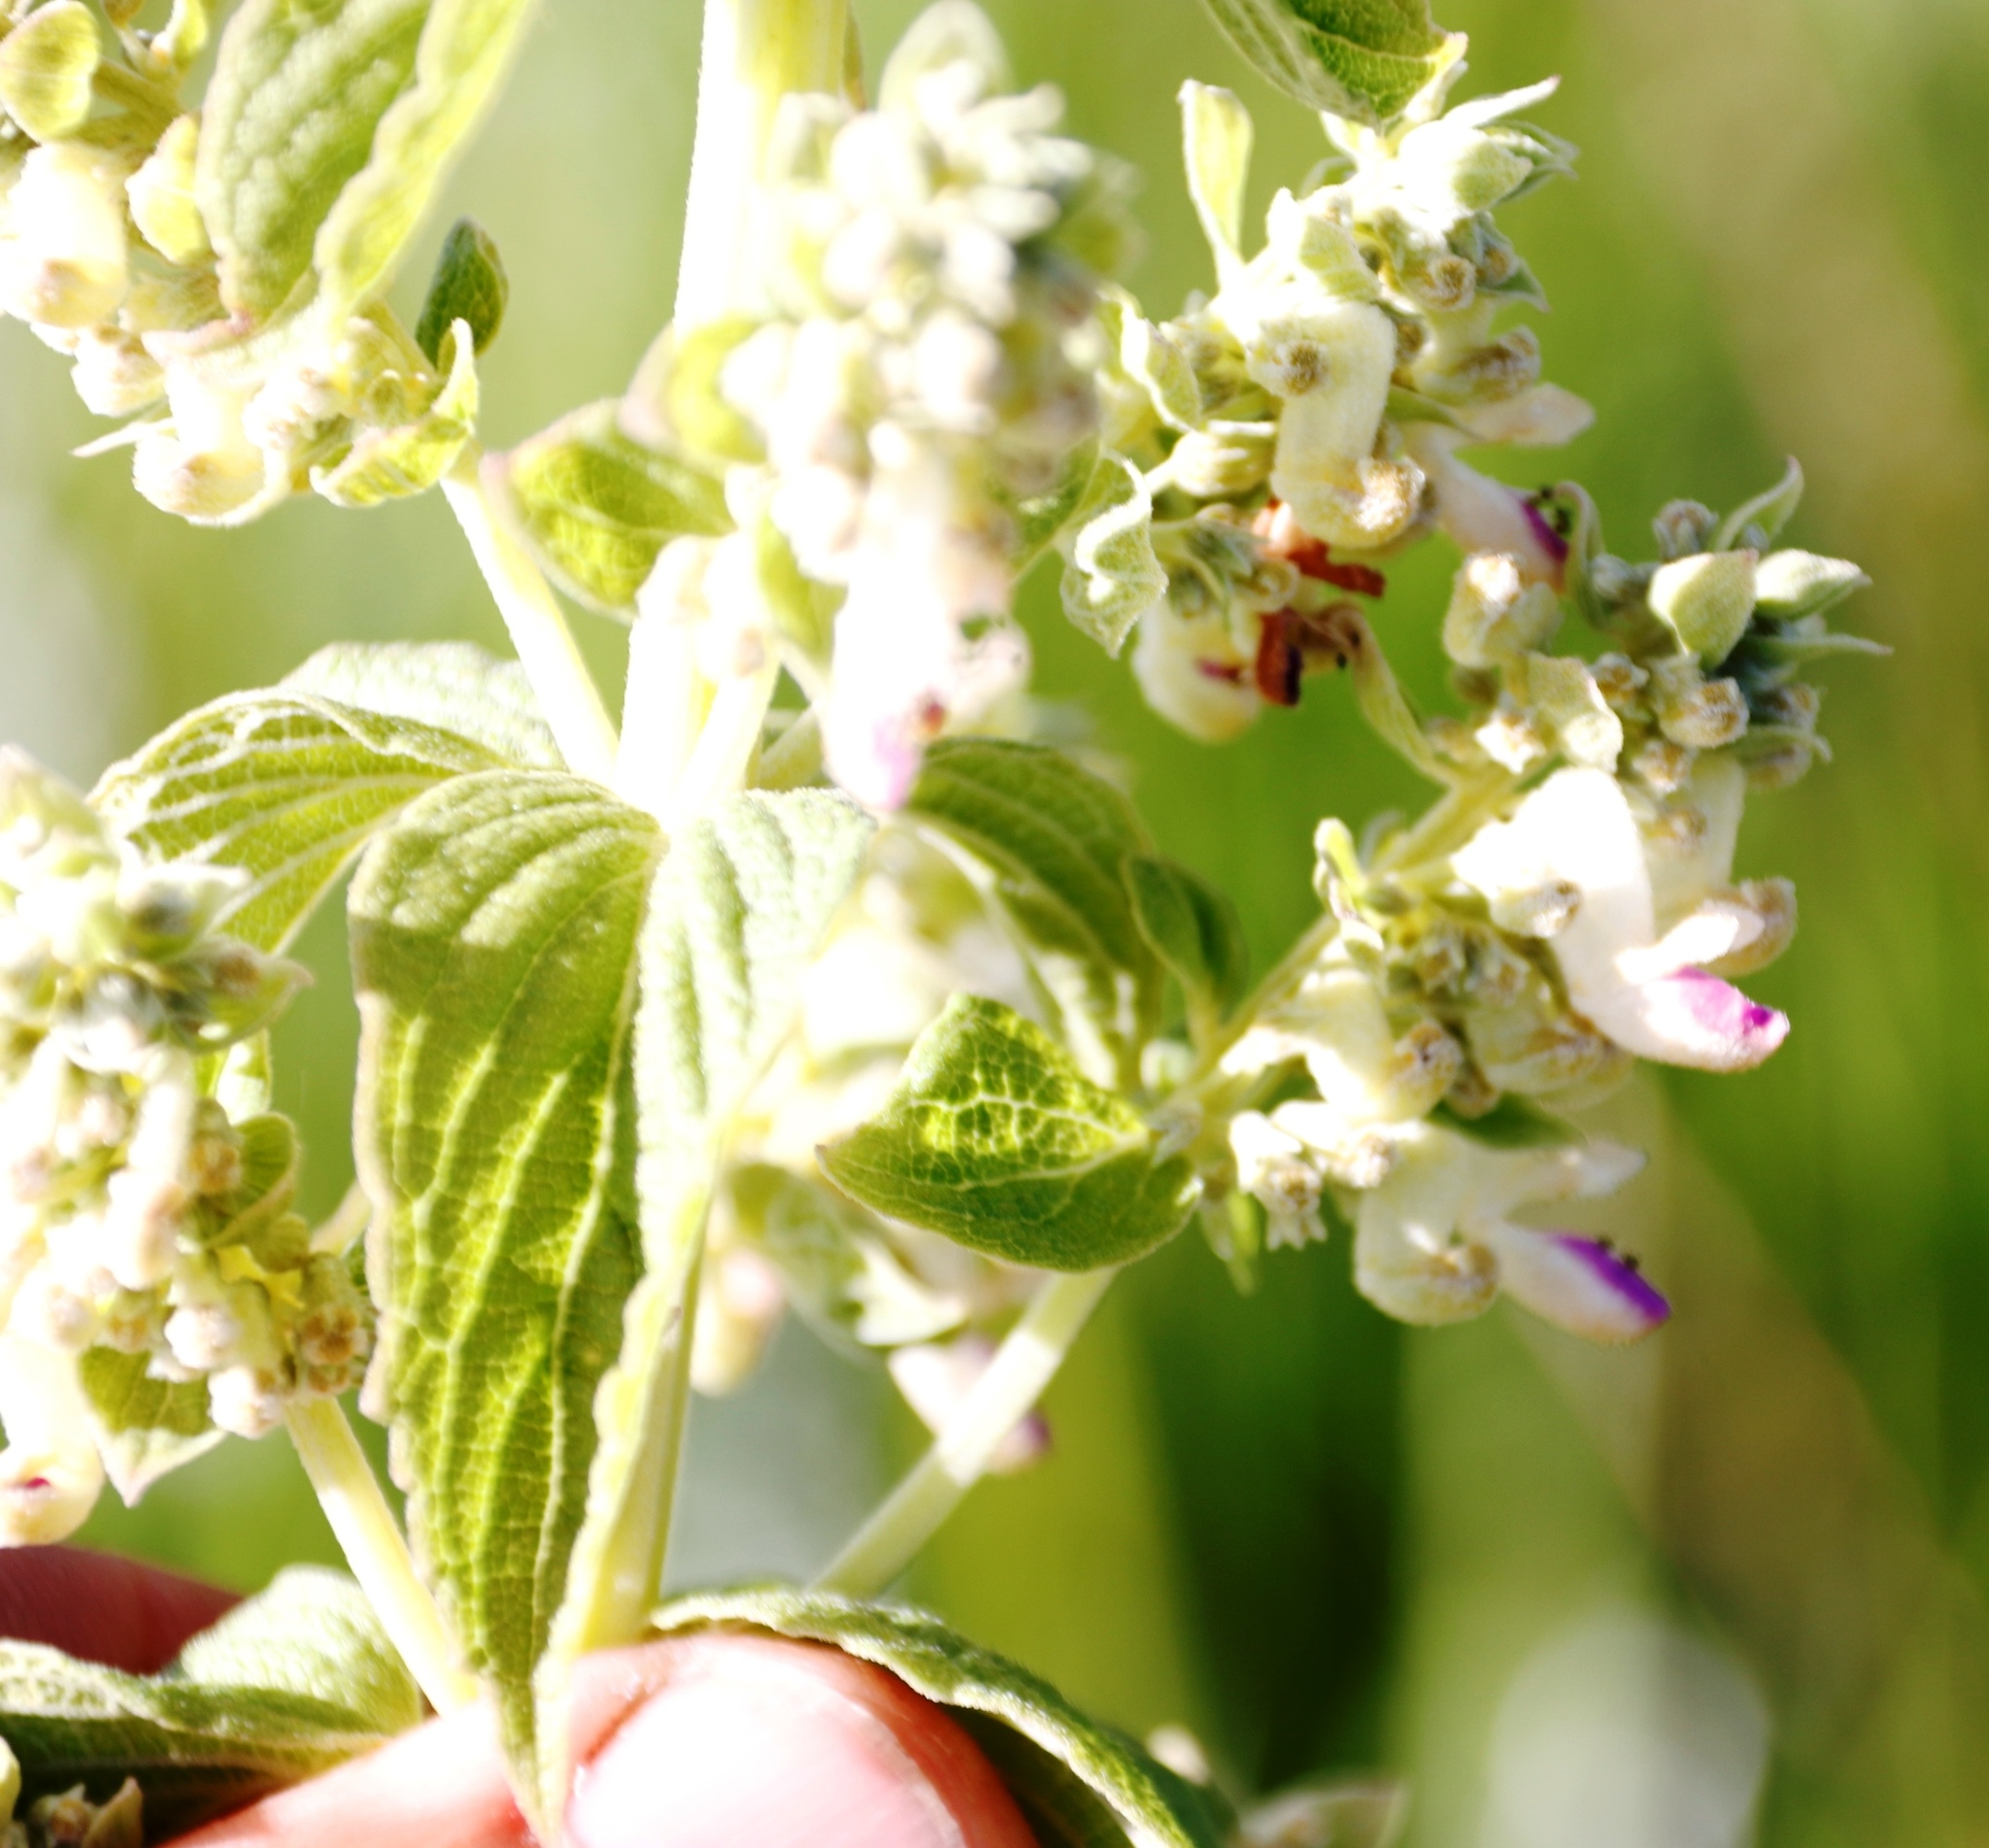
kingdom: Plantae
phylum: Tracheophyta
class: Magnoliopsida
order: Lamiales
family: Lamiaceae
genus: Coleus
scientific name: Coleus calycinus
